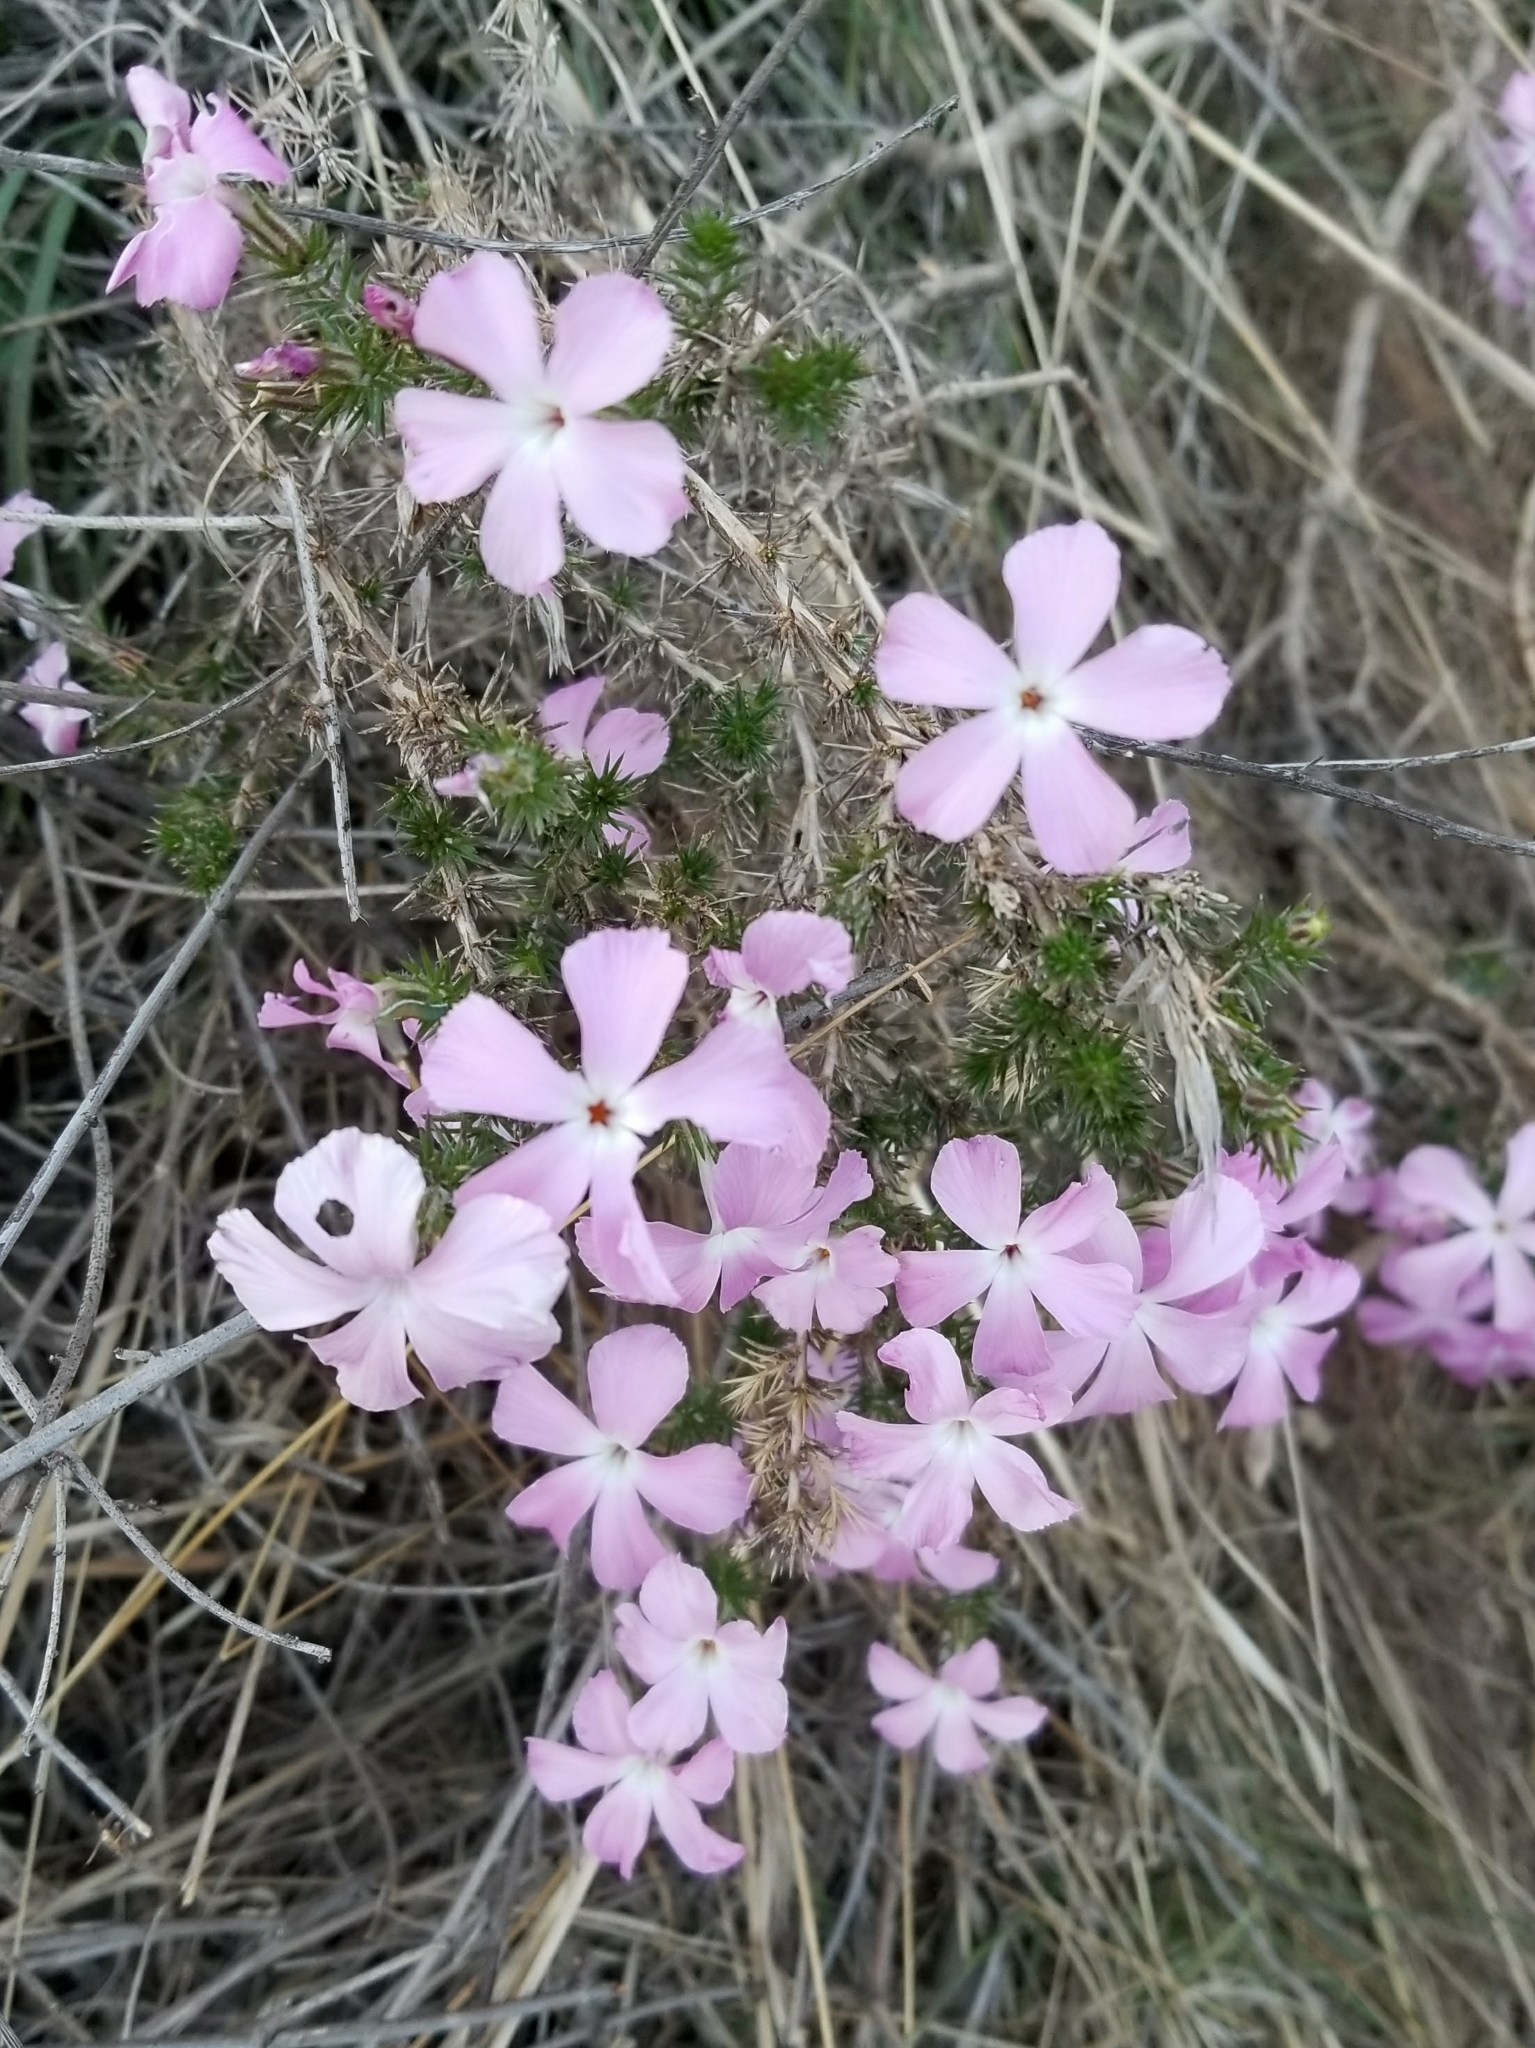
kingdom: Plantae
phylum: Tracheophyta
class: Magnoliopsida
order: Ericales
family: Polemoniaceae
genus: Linanthus
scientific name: Linanthus californicus
